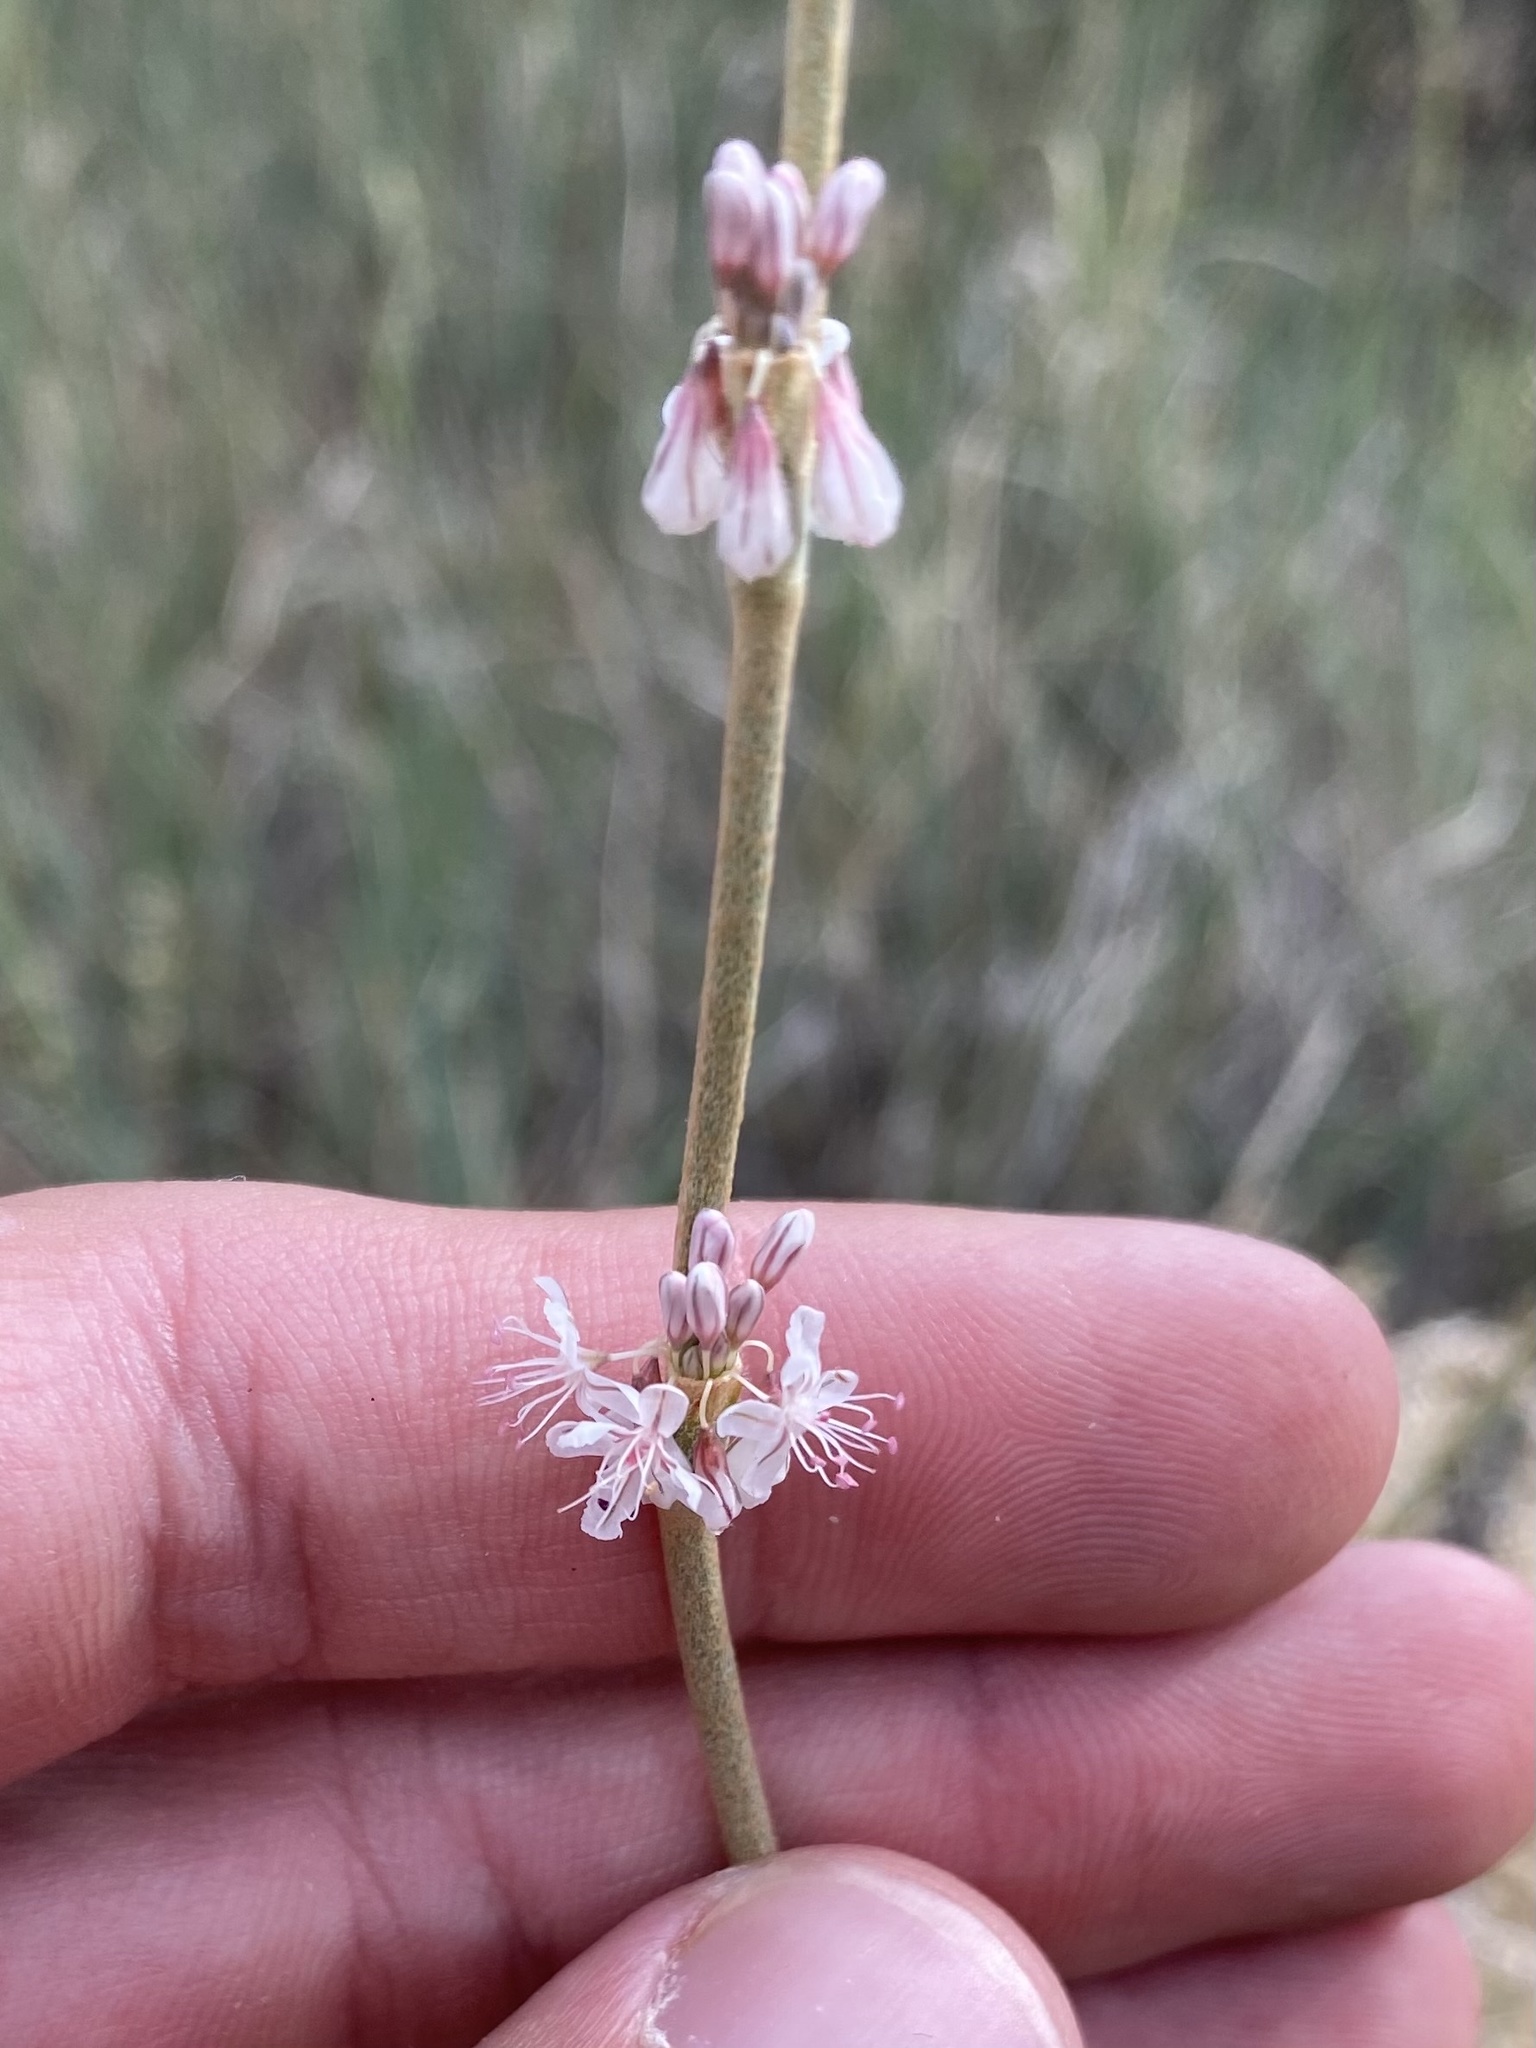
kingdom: Plantae
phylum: Tracheophyta
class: Magnoliopsida
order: Caryophyllales
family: Polygonaceae
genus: Eriogonum
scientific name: Eriogonum racemosum
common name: Redroot wild buckwheat
